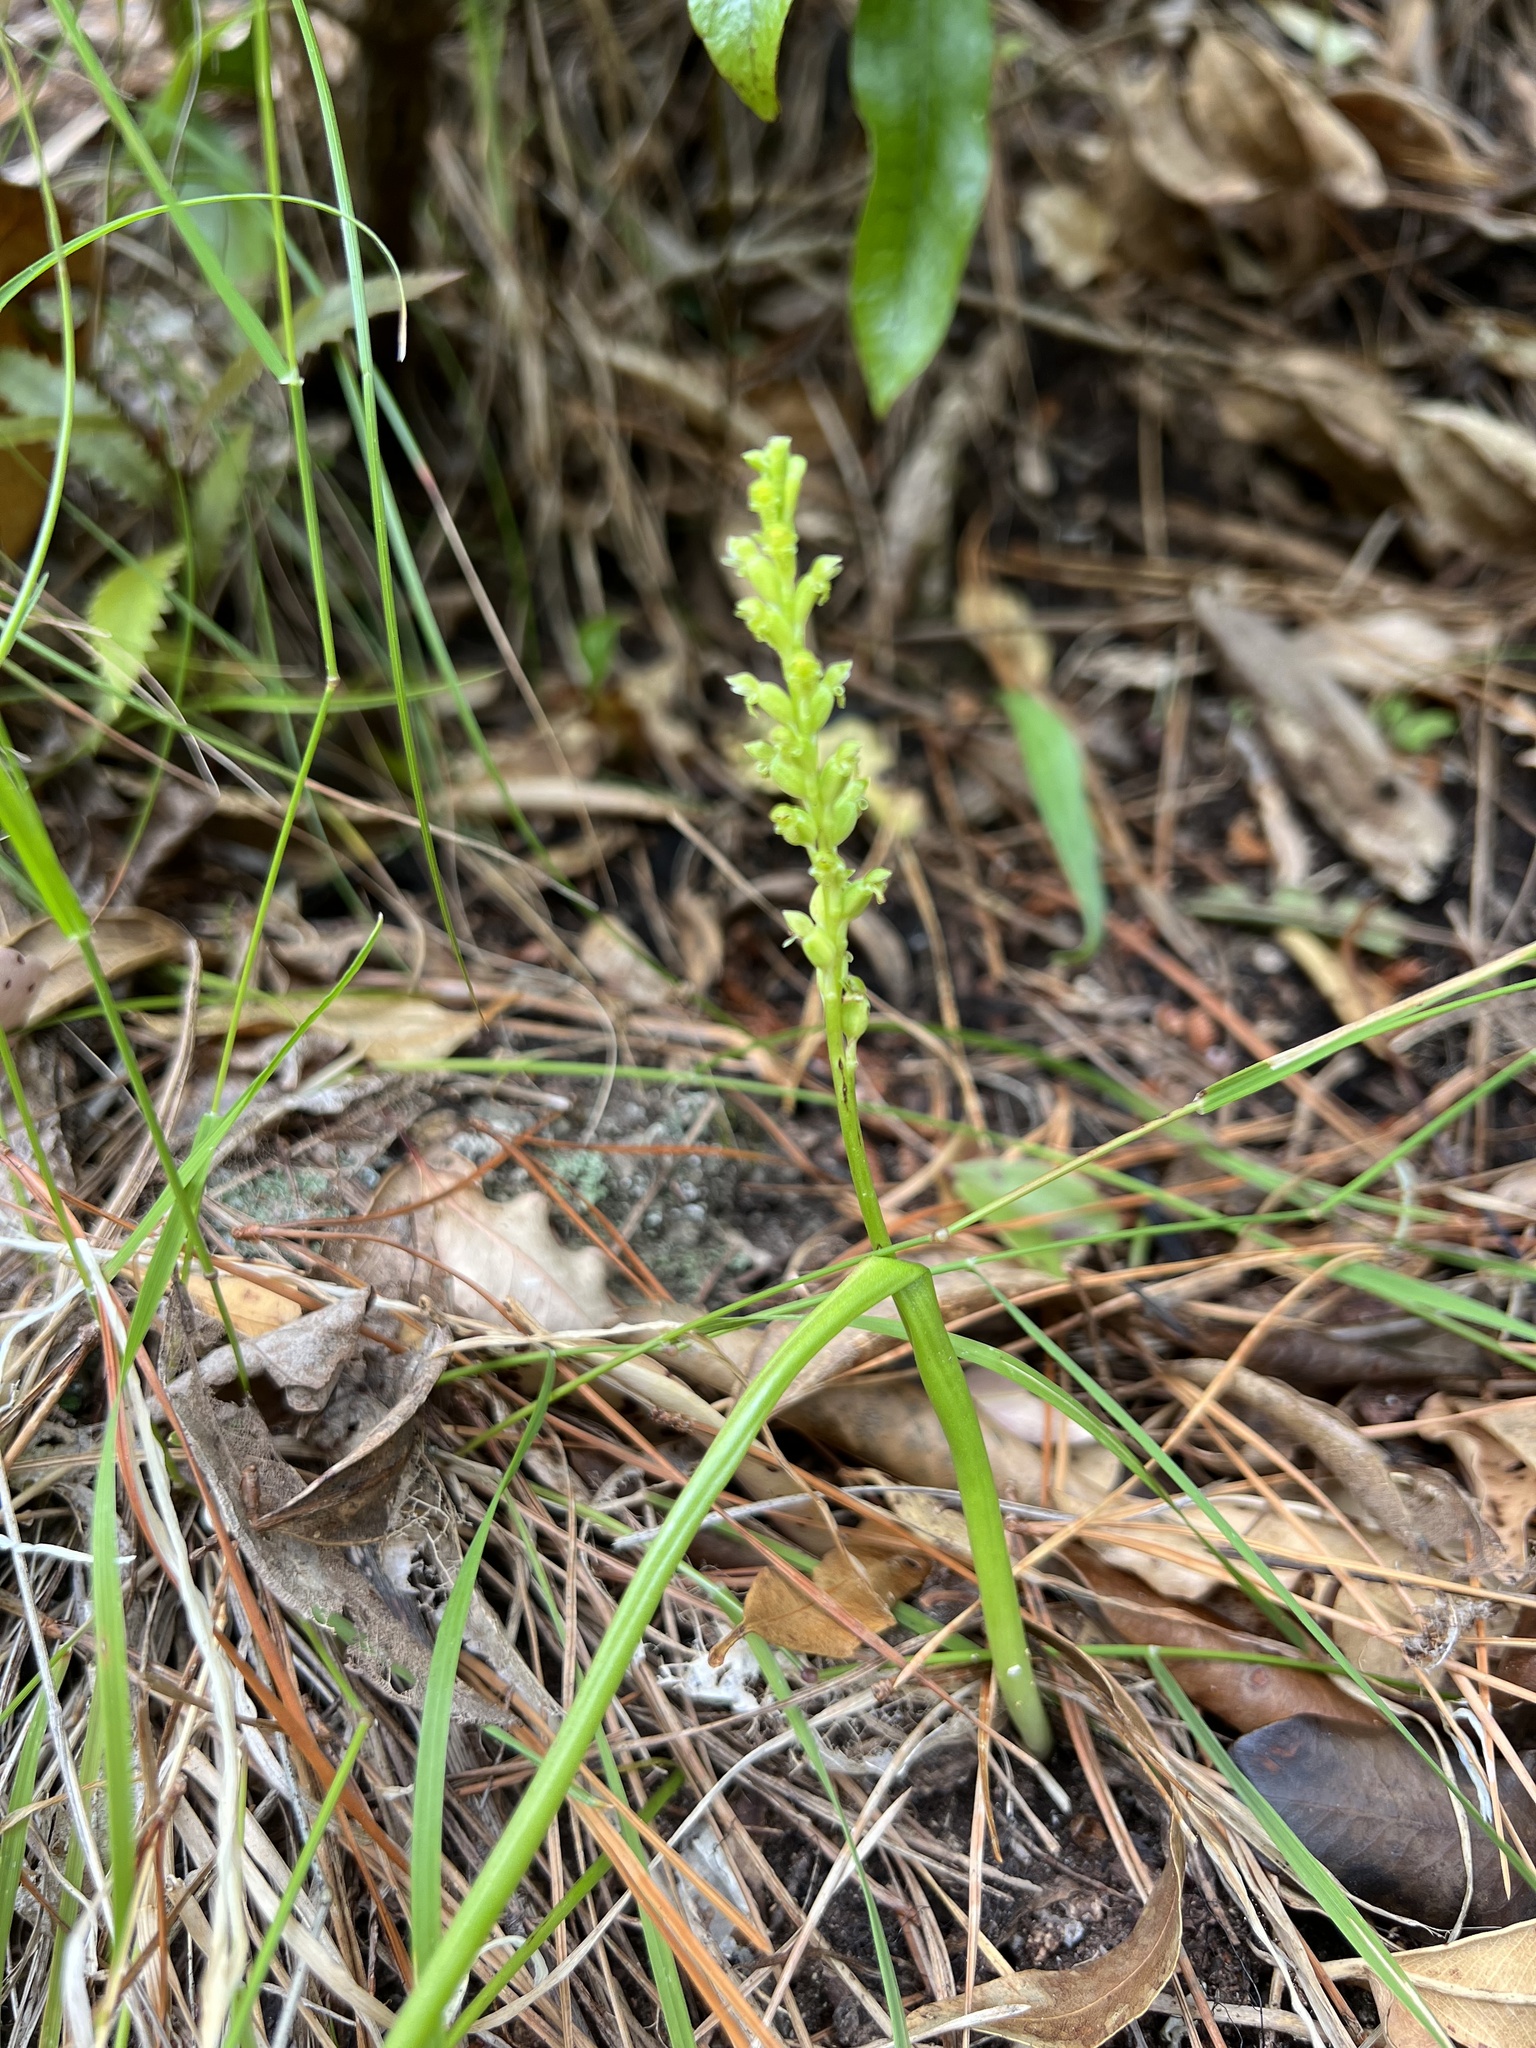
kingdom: Plantae
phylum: Tracheophyta
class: Liliopsida
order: Asparagales
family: Orchidaceae
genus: Microtis
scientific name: Microtis unifolia
